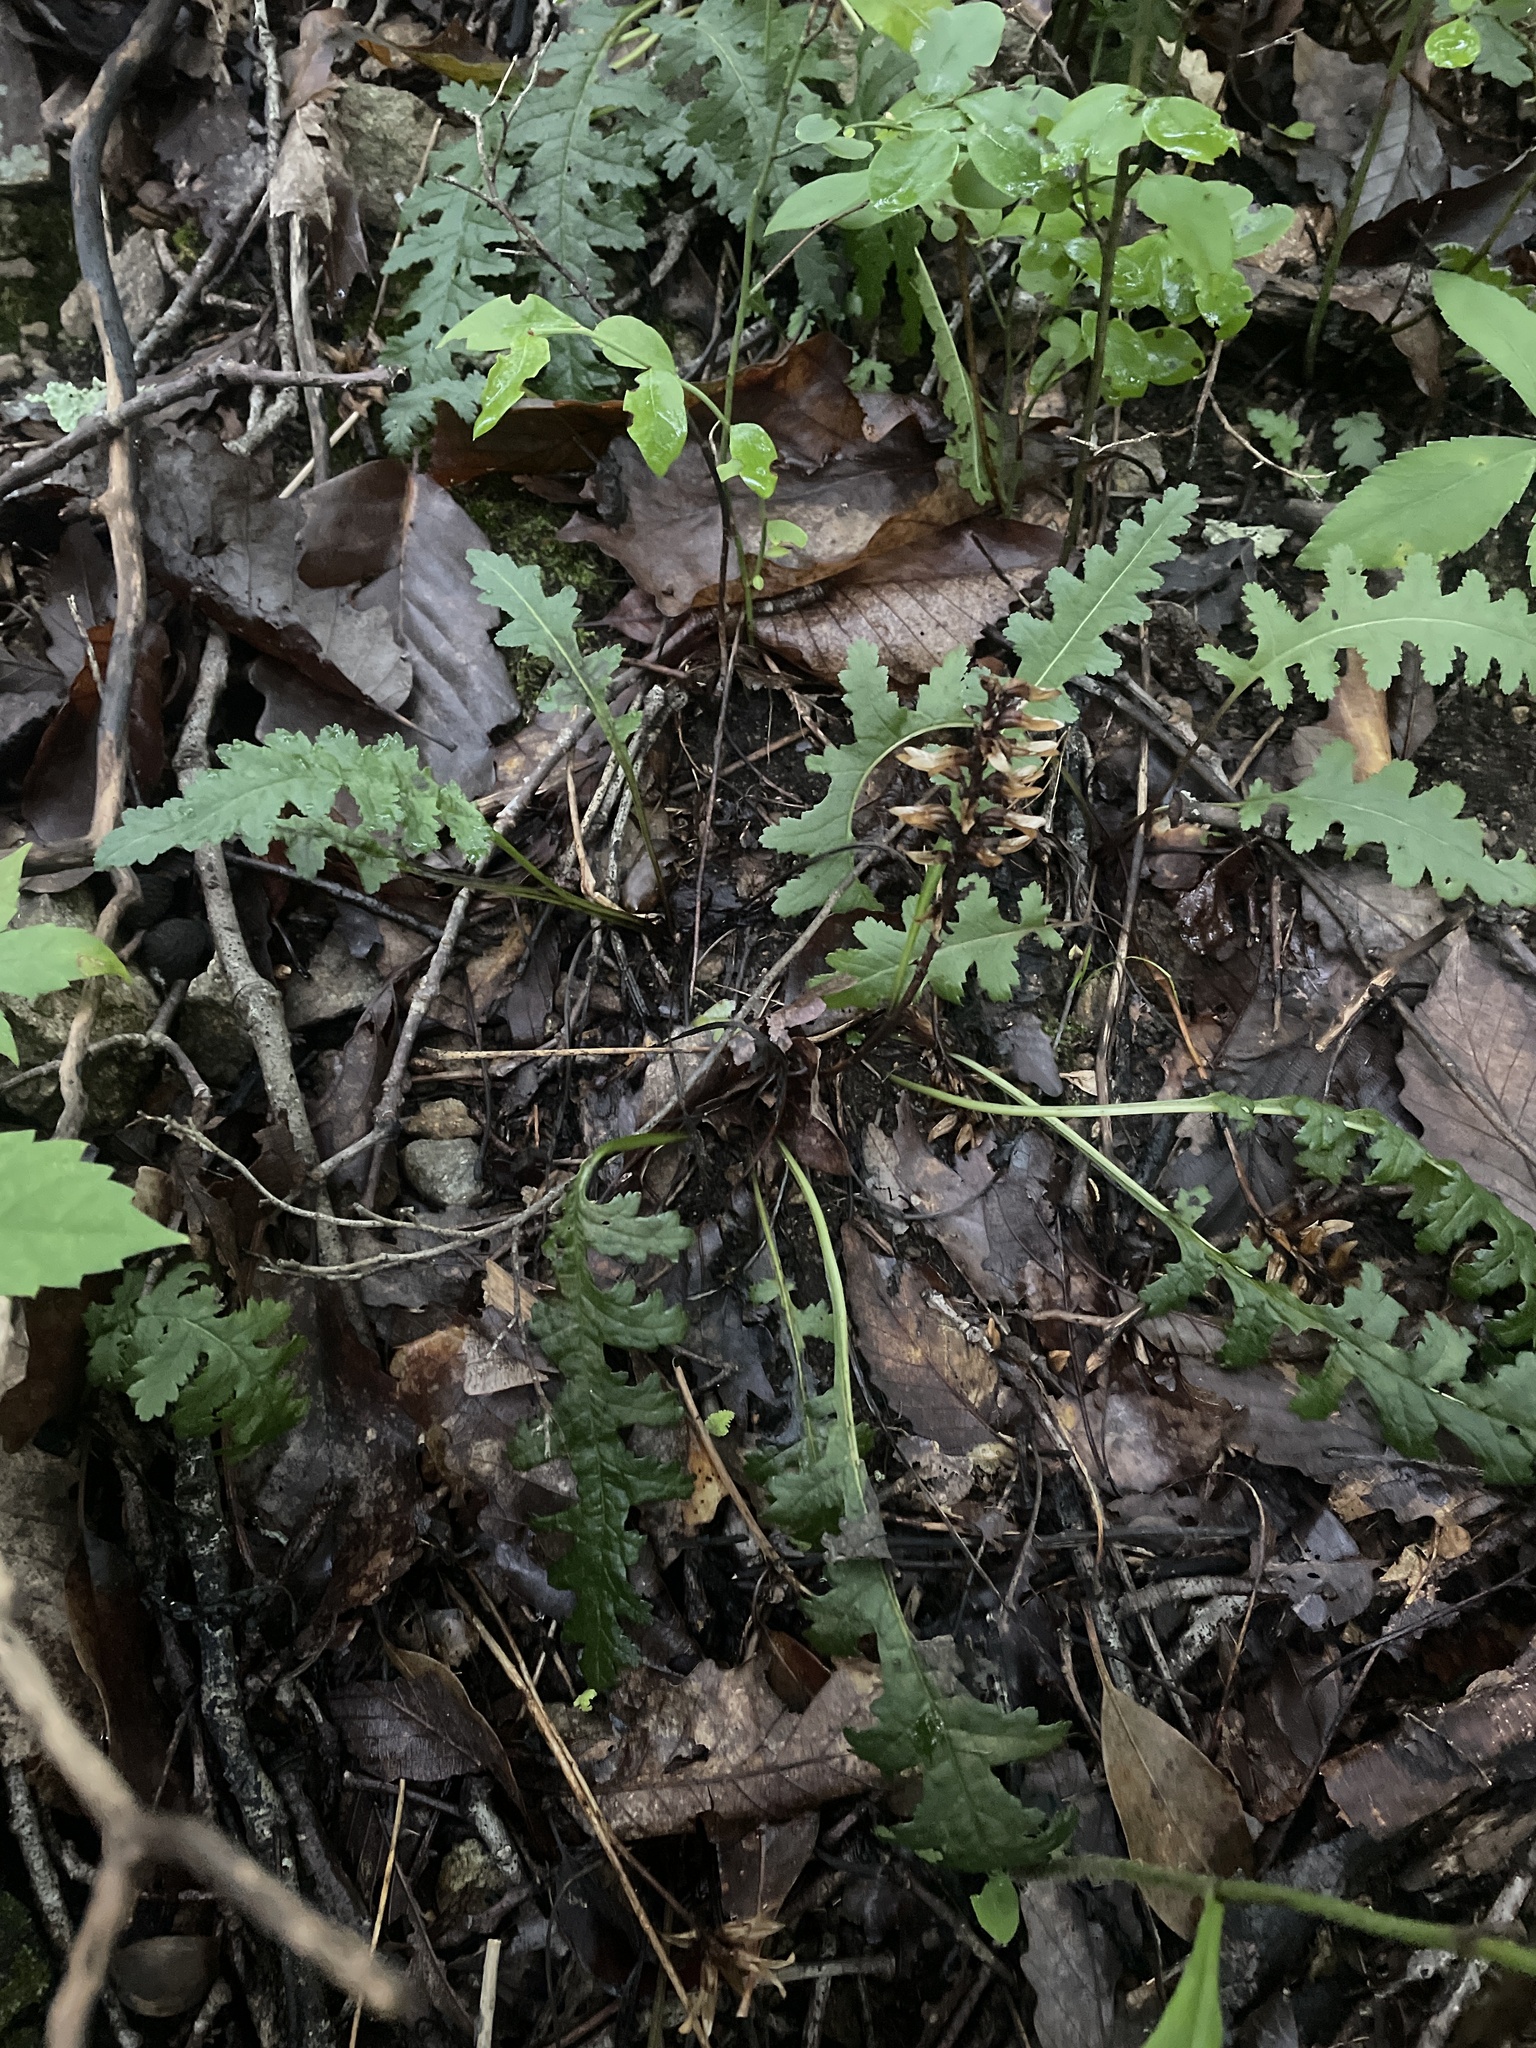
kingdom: Plantae
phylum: Tracheophyta
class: Magnoliopsida
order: Lamiales
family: Orobanchaceae
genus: Pedicularis
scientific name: Pedicularis canadensis
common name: Early lousewort
